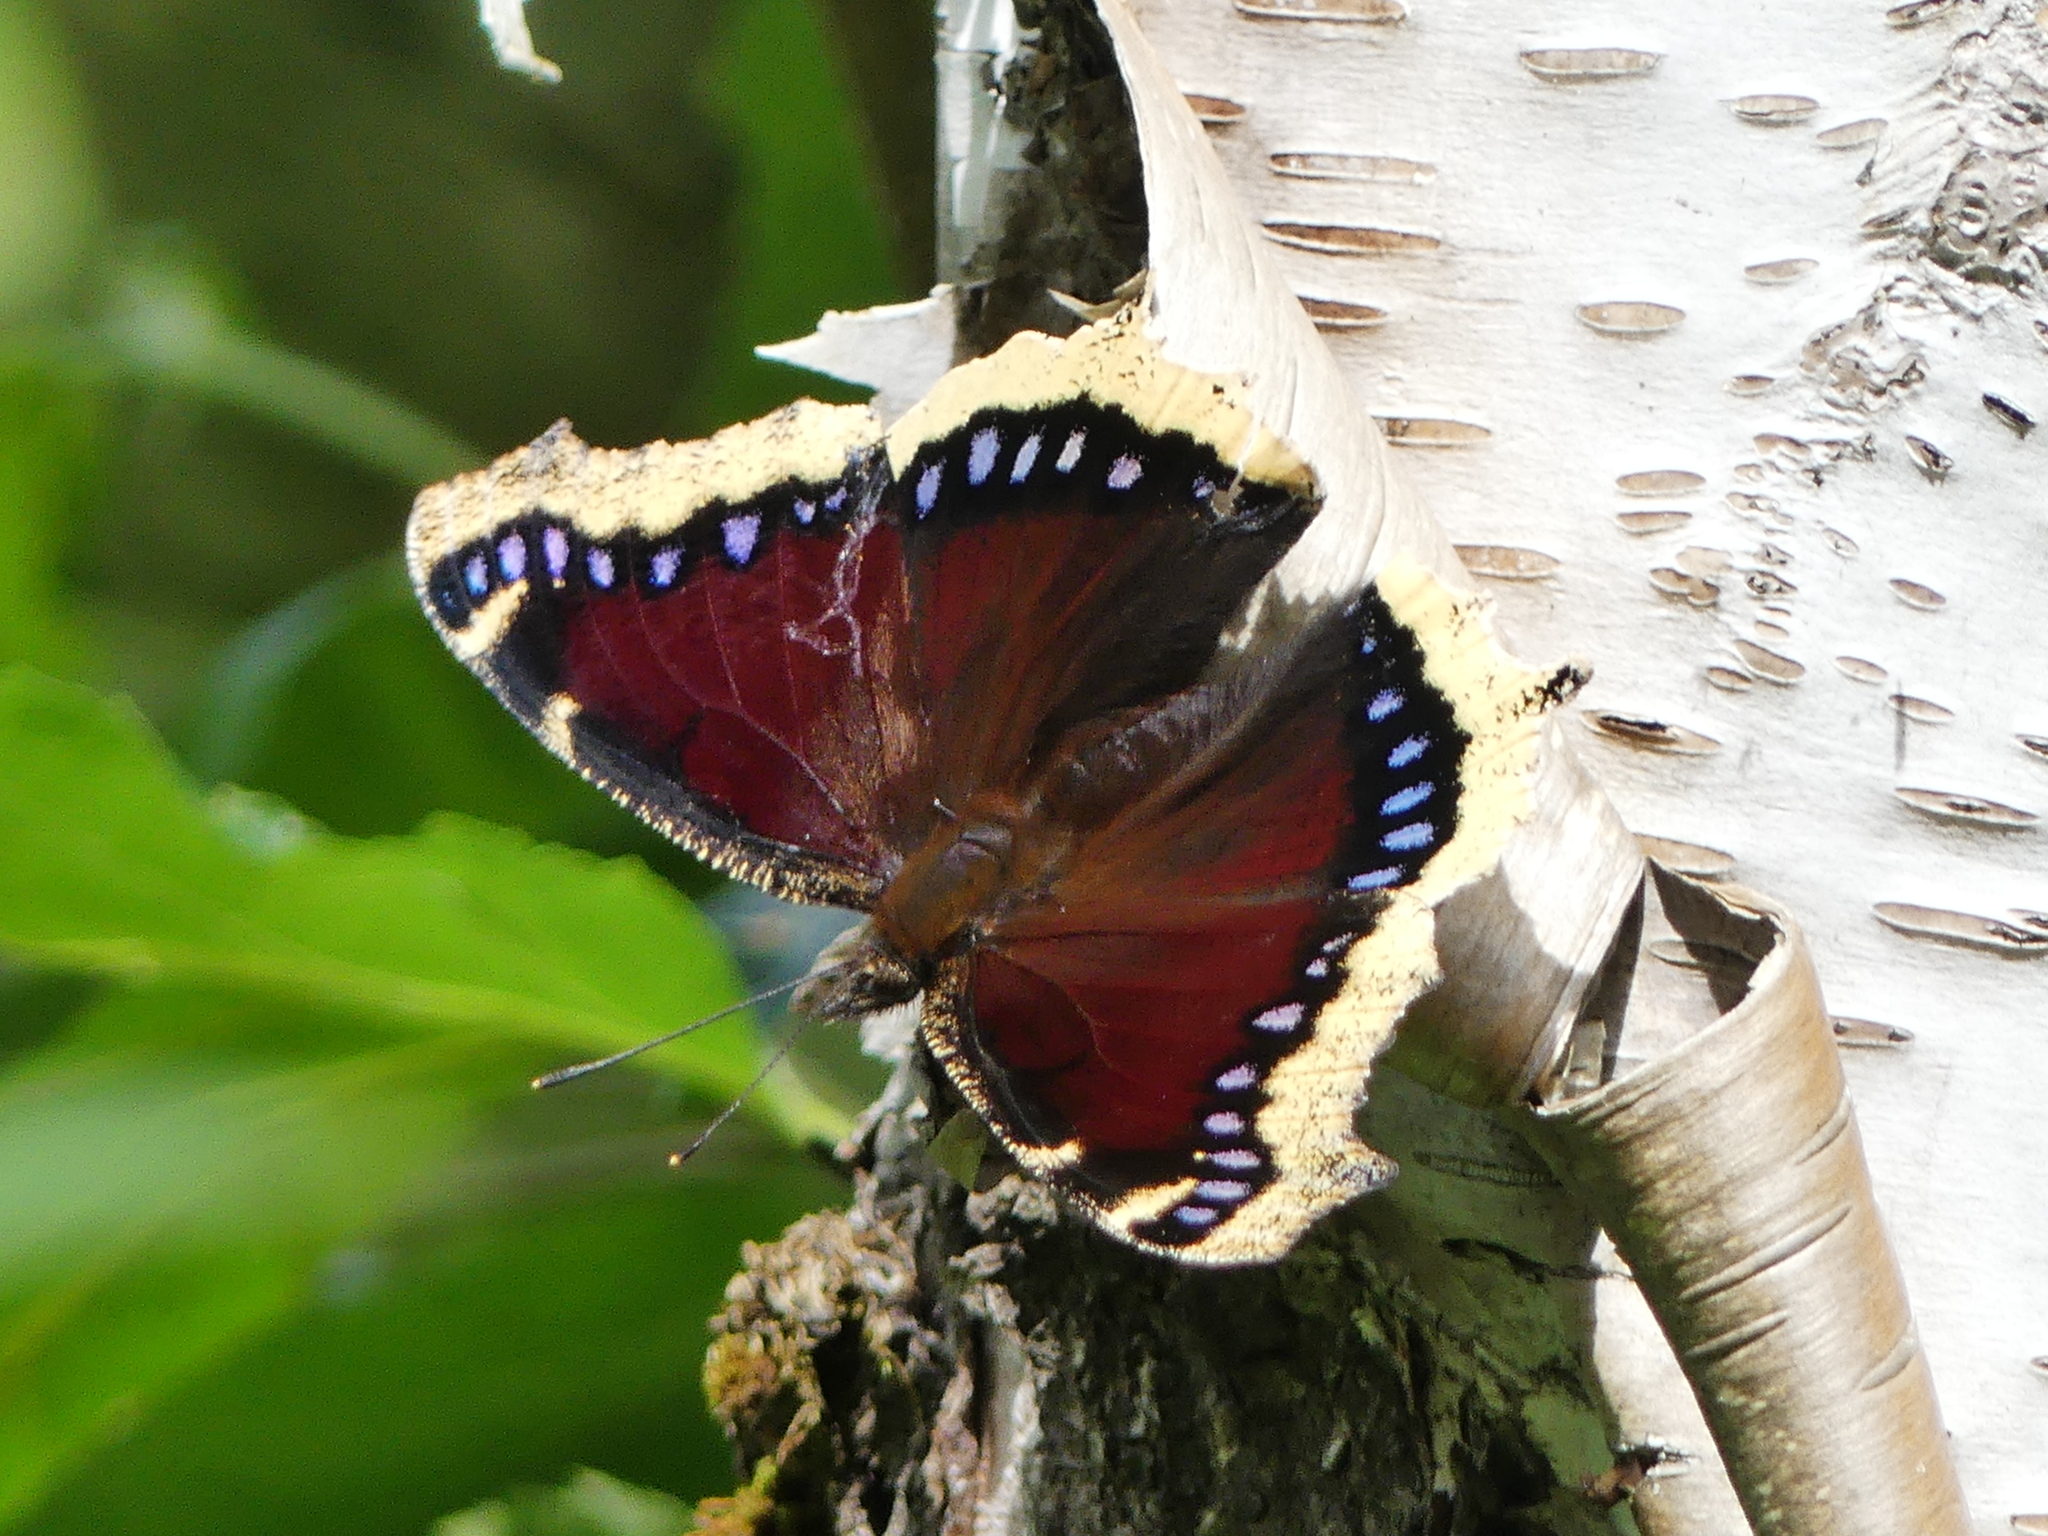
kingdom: Animalia
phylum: Arthropoda
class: Insecta
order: Lepidoptera
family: Nymphalidae
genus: Nymphalis
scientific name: Nymphalis antiopa
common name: Camberwell beauty
